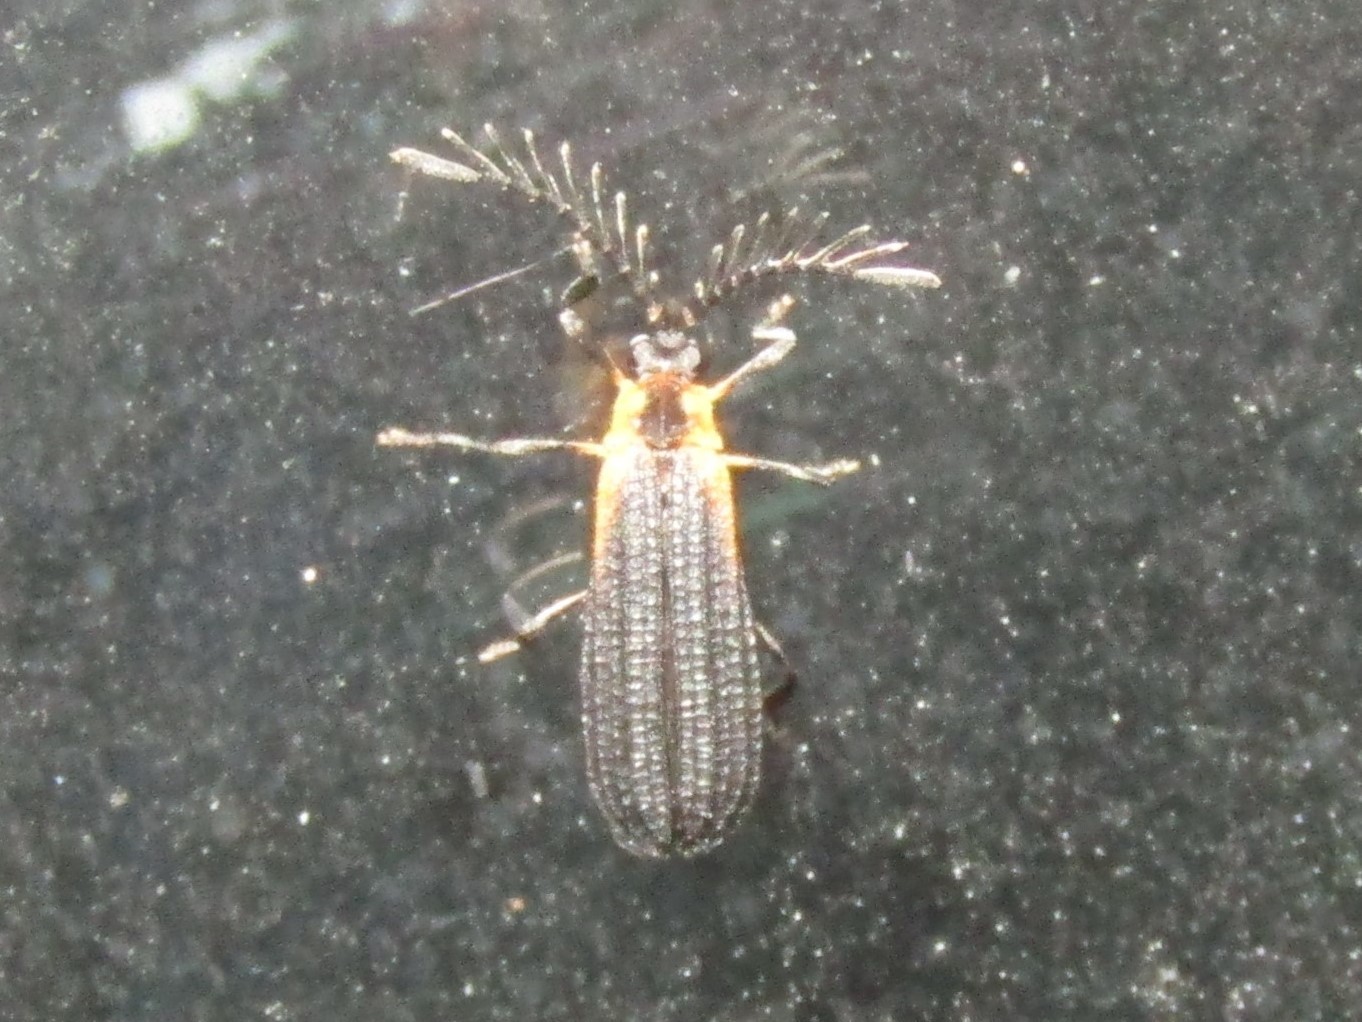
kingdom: Animalia
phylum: Arthropoda
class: Insecta
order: Coleoptera
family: Lycidae
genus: Leptoceletes
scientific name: Leptoceletes basalis
